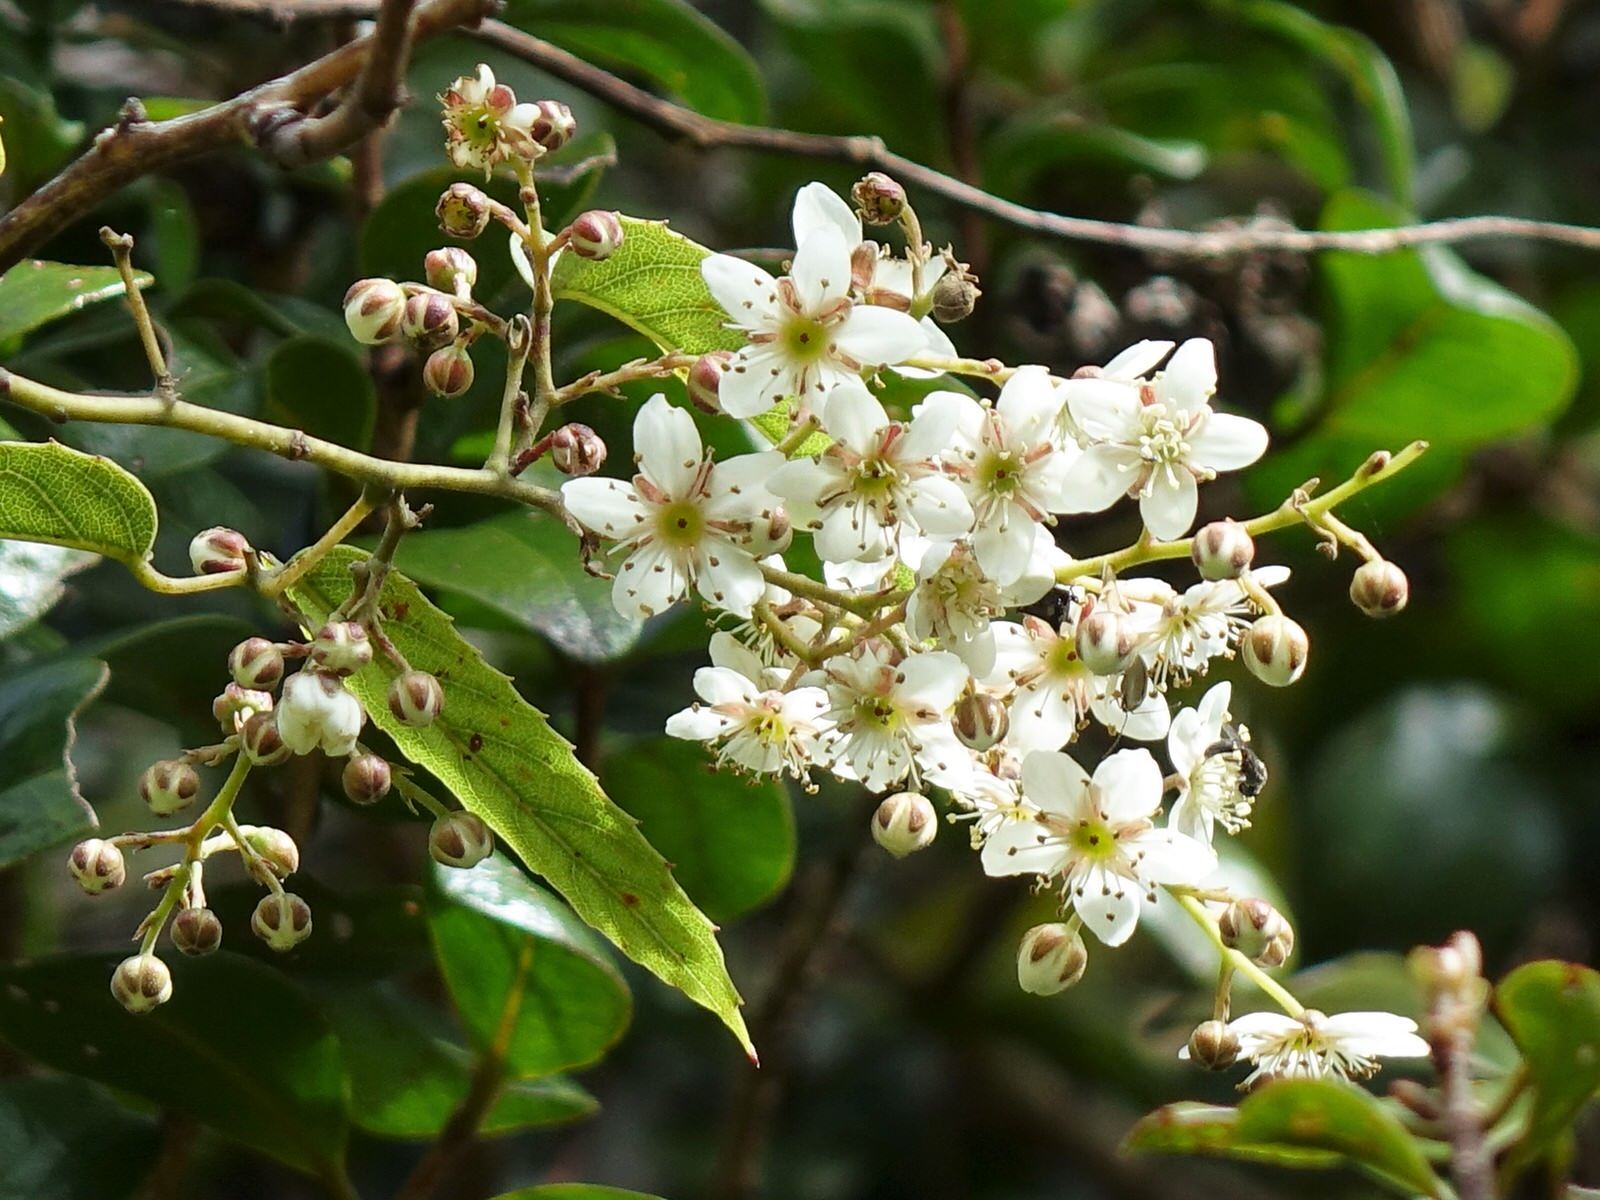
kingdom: Plantae
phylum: Tracheophyta
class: Magnoliopsida
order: Rosales
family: Rosaceae
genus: Rubus
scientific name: Rubus cissoides
